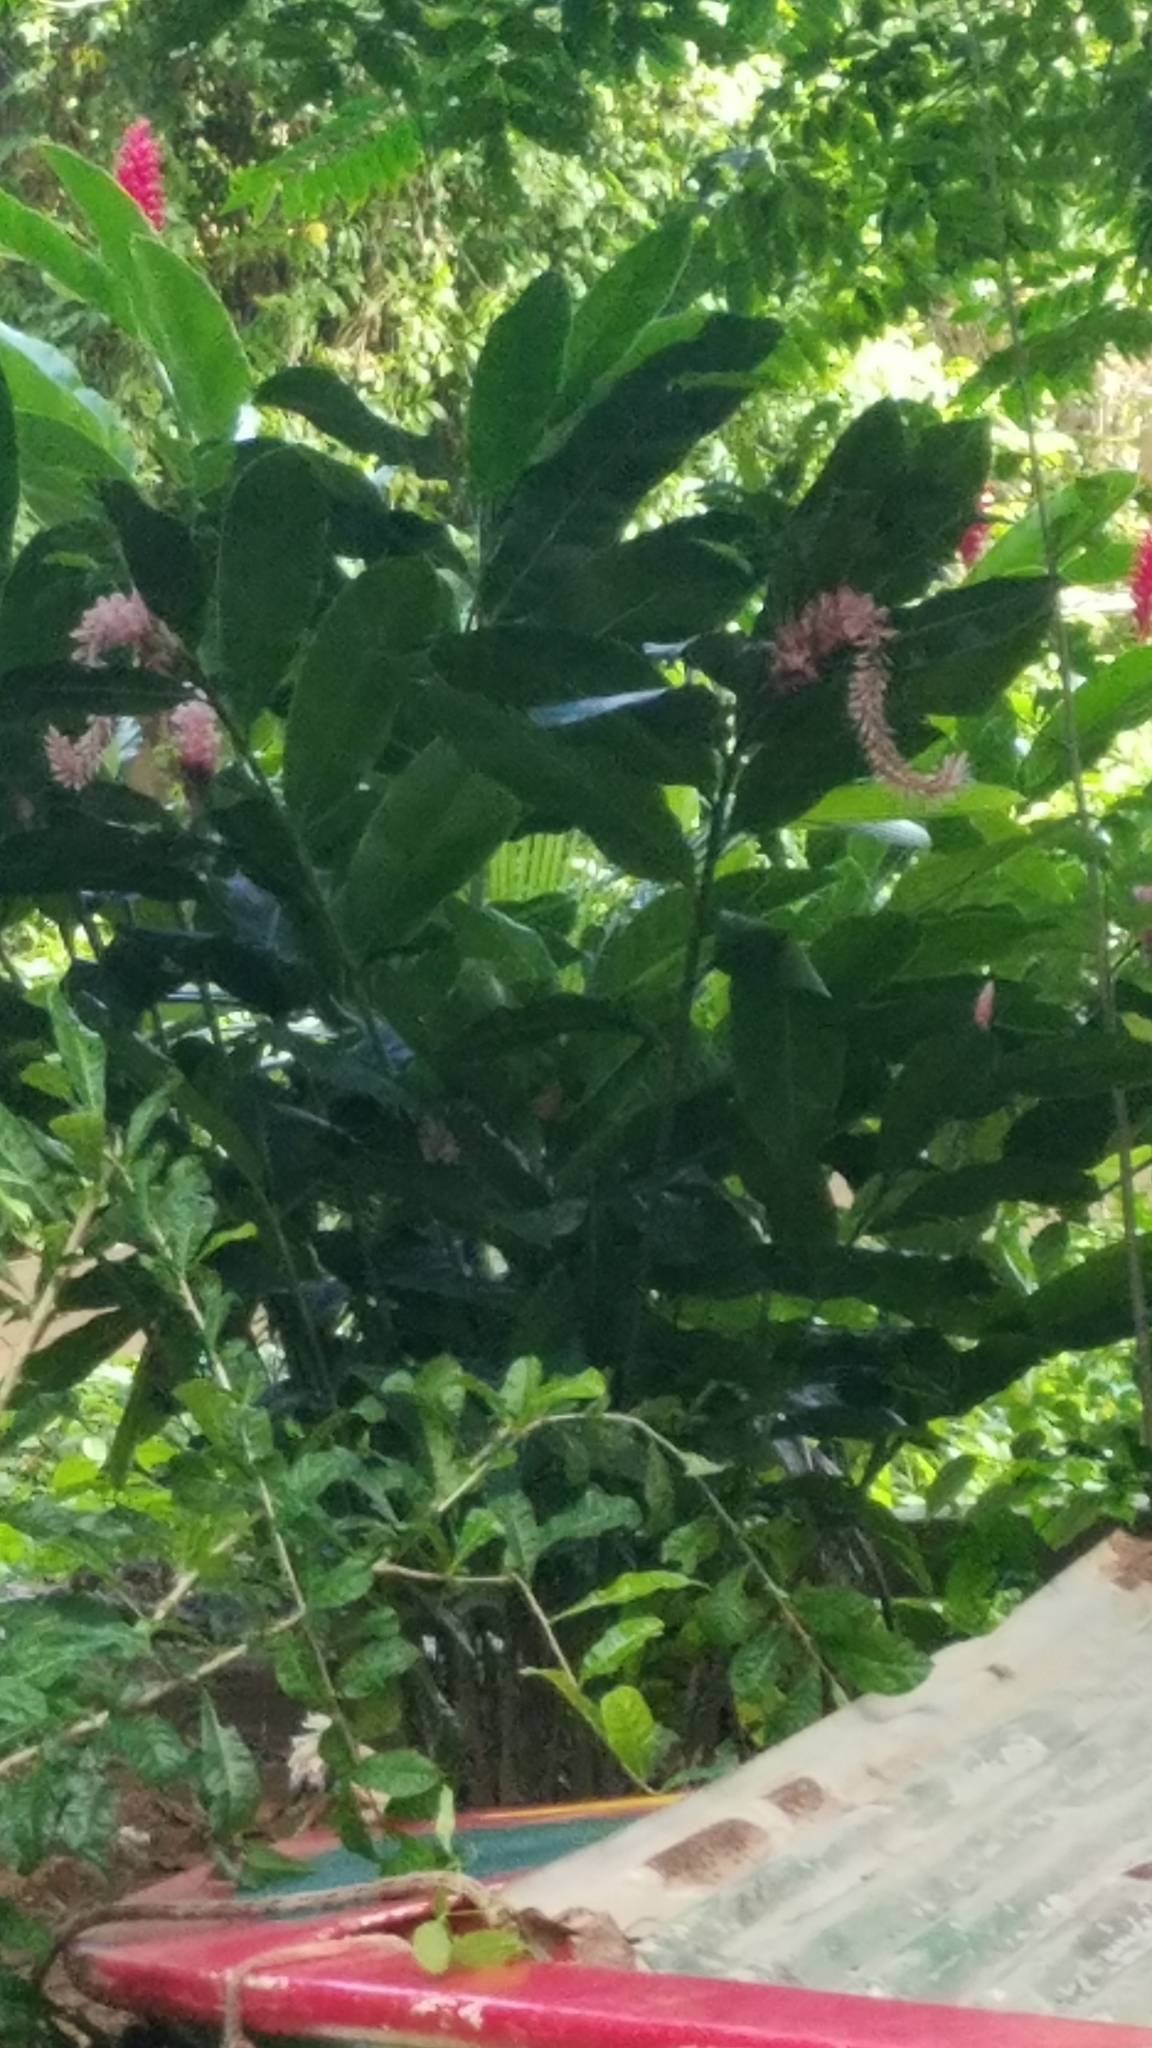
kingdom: Plantae
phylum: Tracheophyta
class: Liliopsida
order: Zingiberales
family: Zingiberaceae
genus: Alpinia
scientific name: Alpinia purpurata
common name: Red ginger
